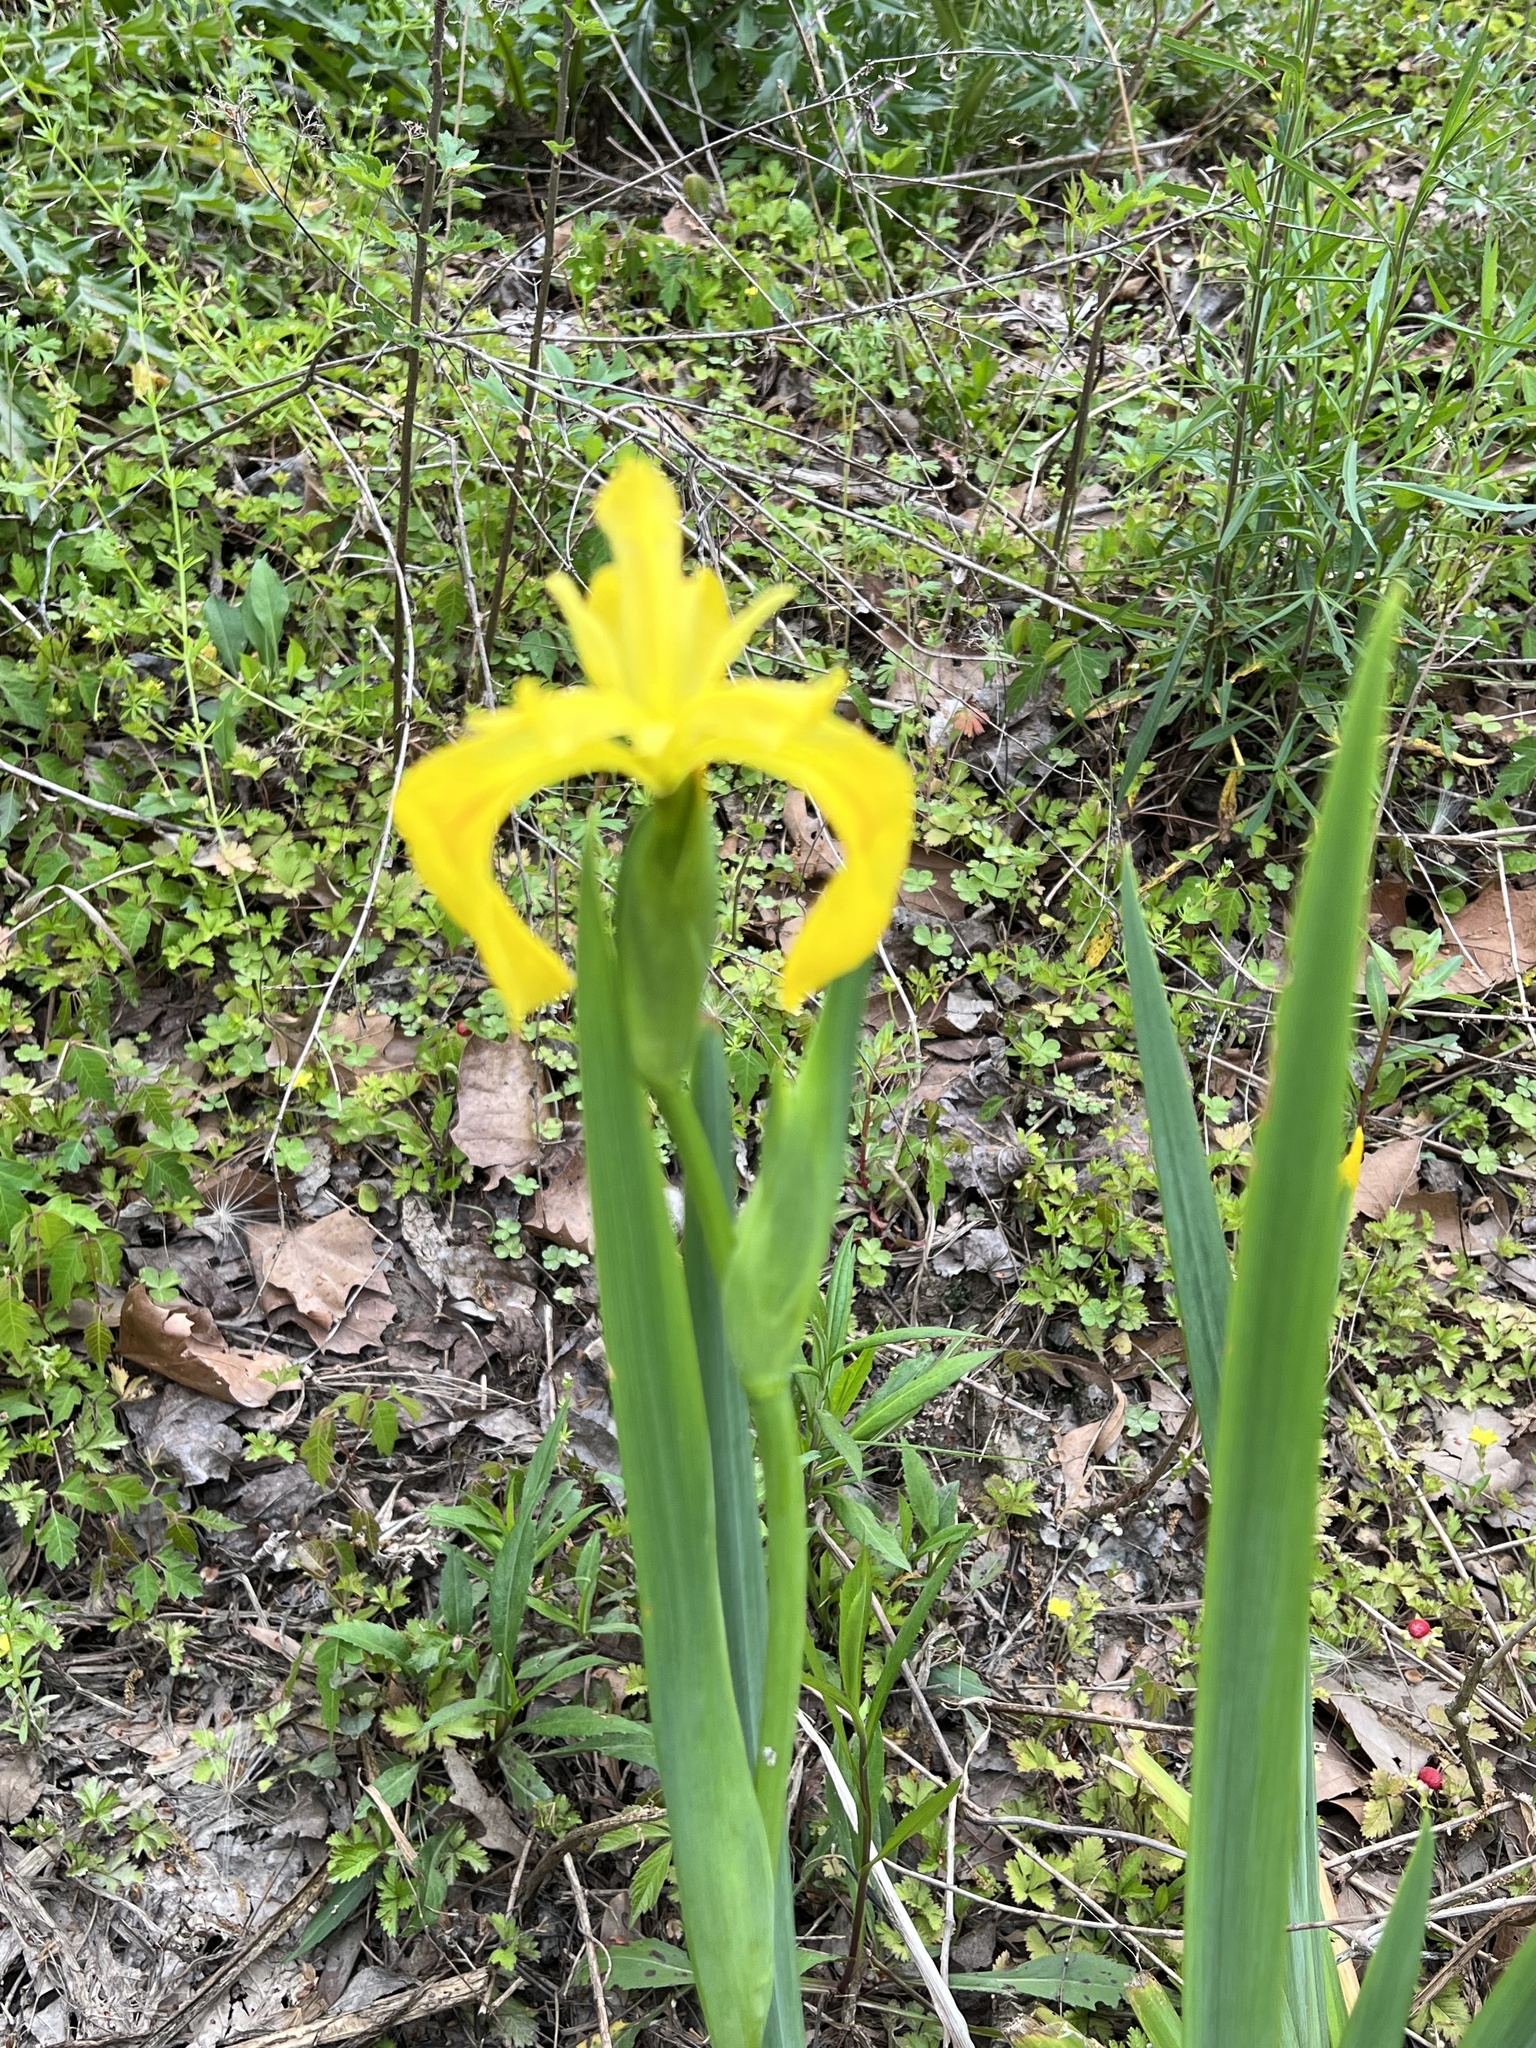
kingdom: Plantae
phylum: Tracheophyta
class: Liliopsida
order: Asparagales
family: Iridaceae
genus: Iris
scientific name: Iris pseudacorus
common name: Yellow flag
